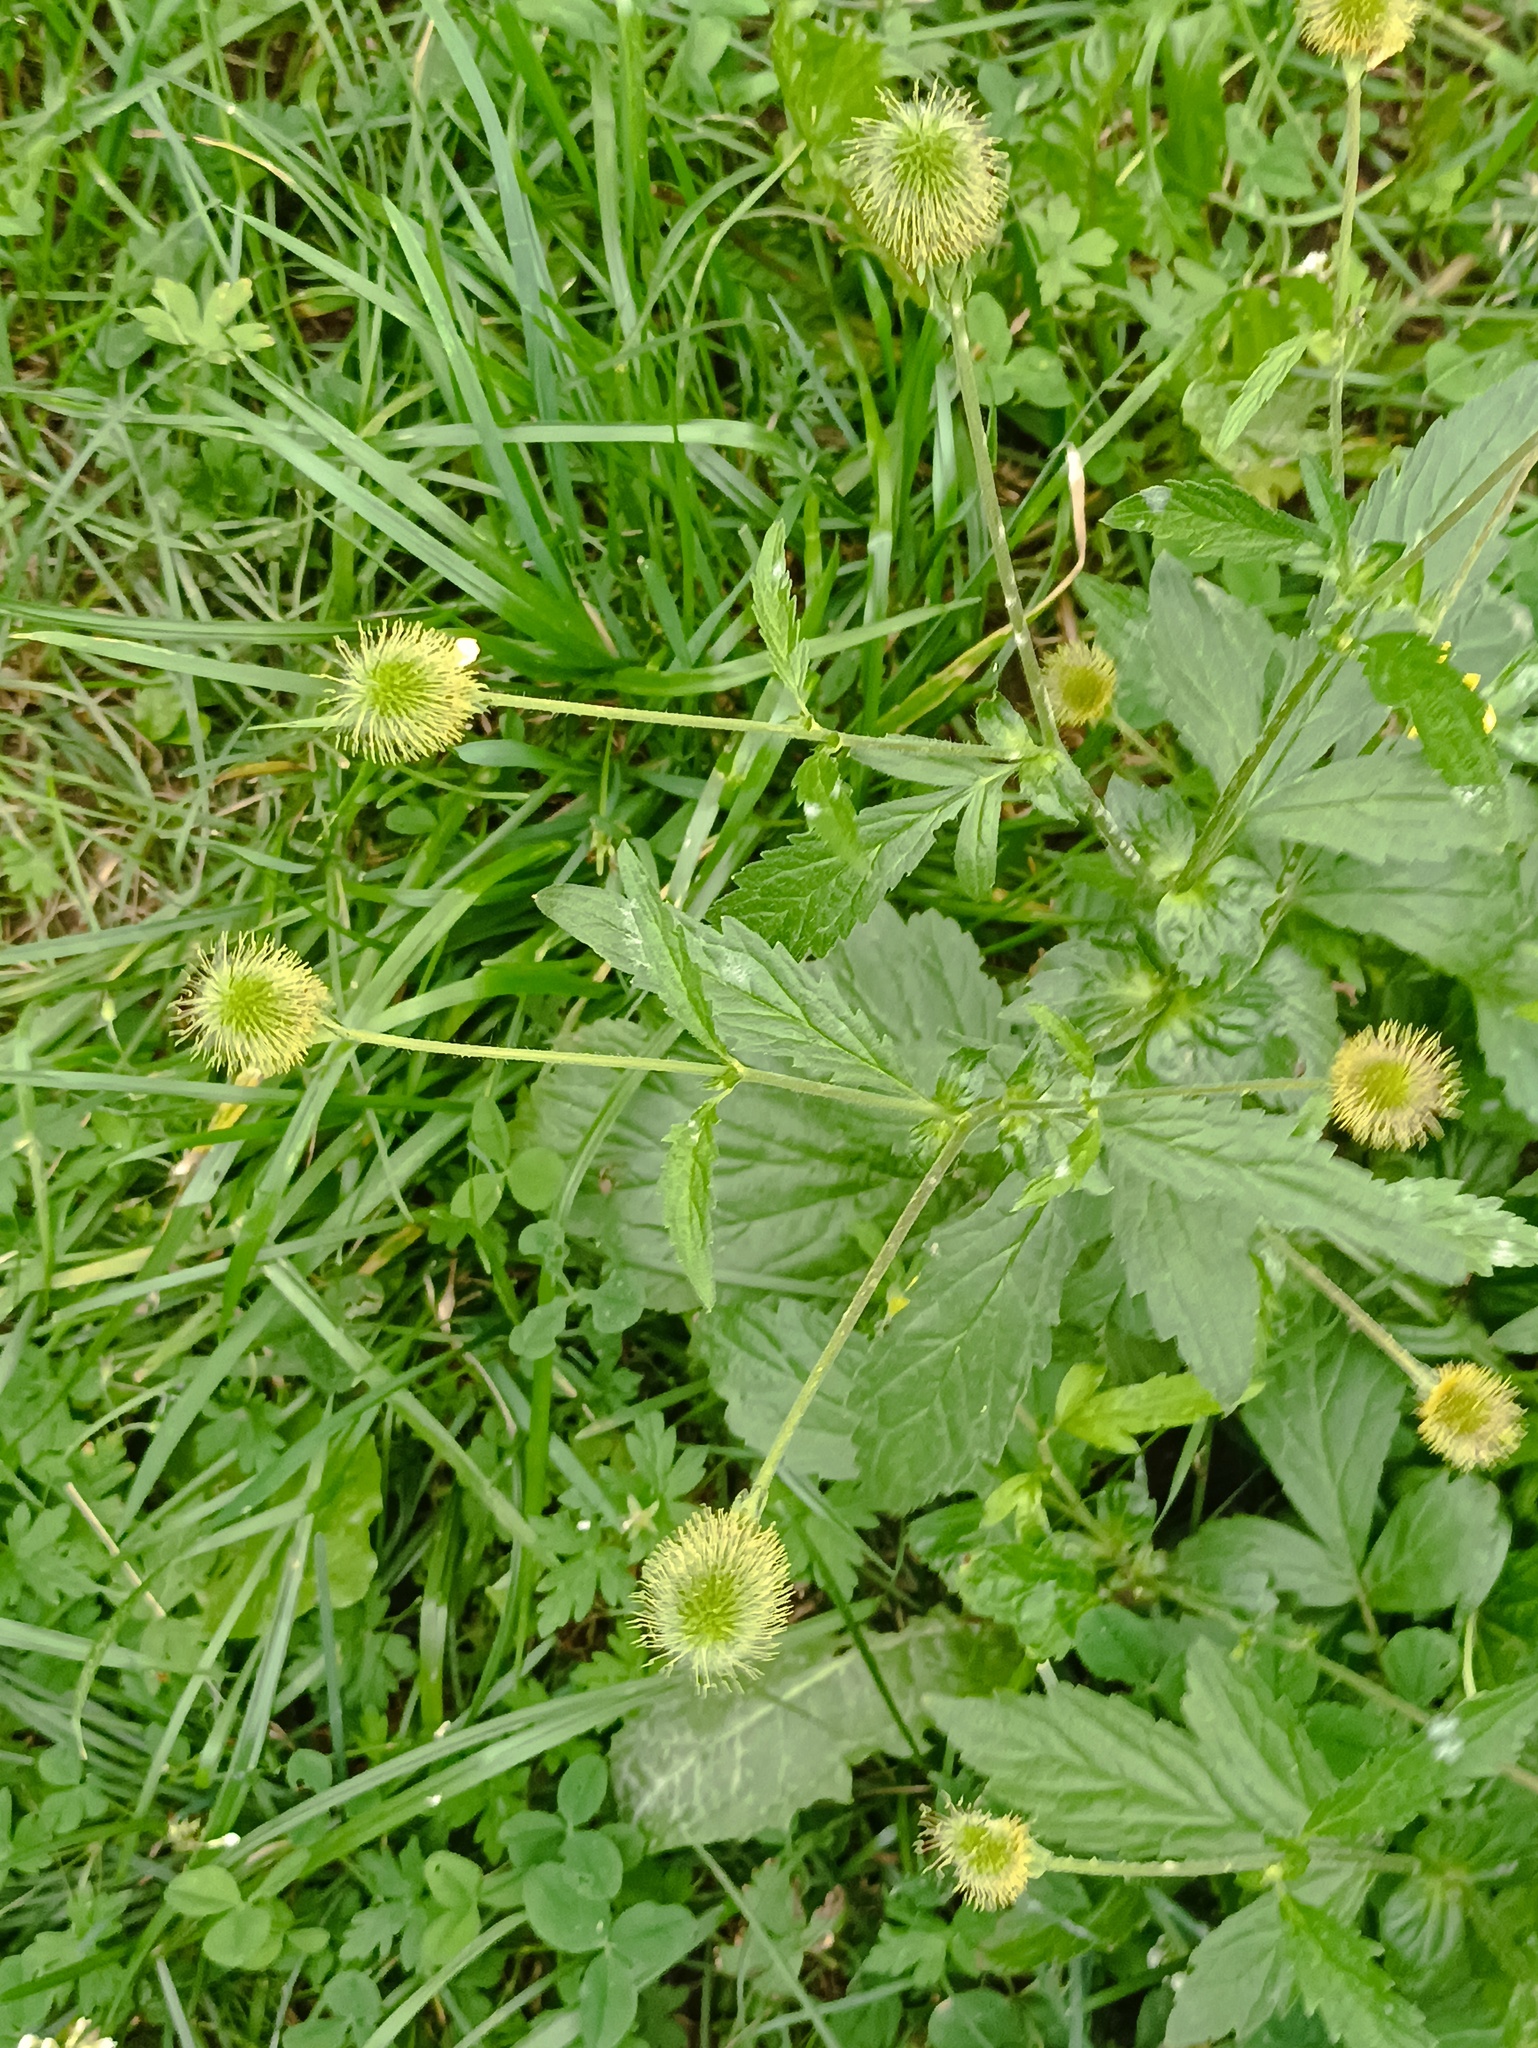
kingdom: Plantae
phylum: Tracheophyta
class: Magnoliopsida
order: Rosales
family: Rosaceae
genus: Geum
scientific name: Geum aleppicum
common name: Yellow avens
